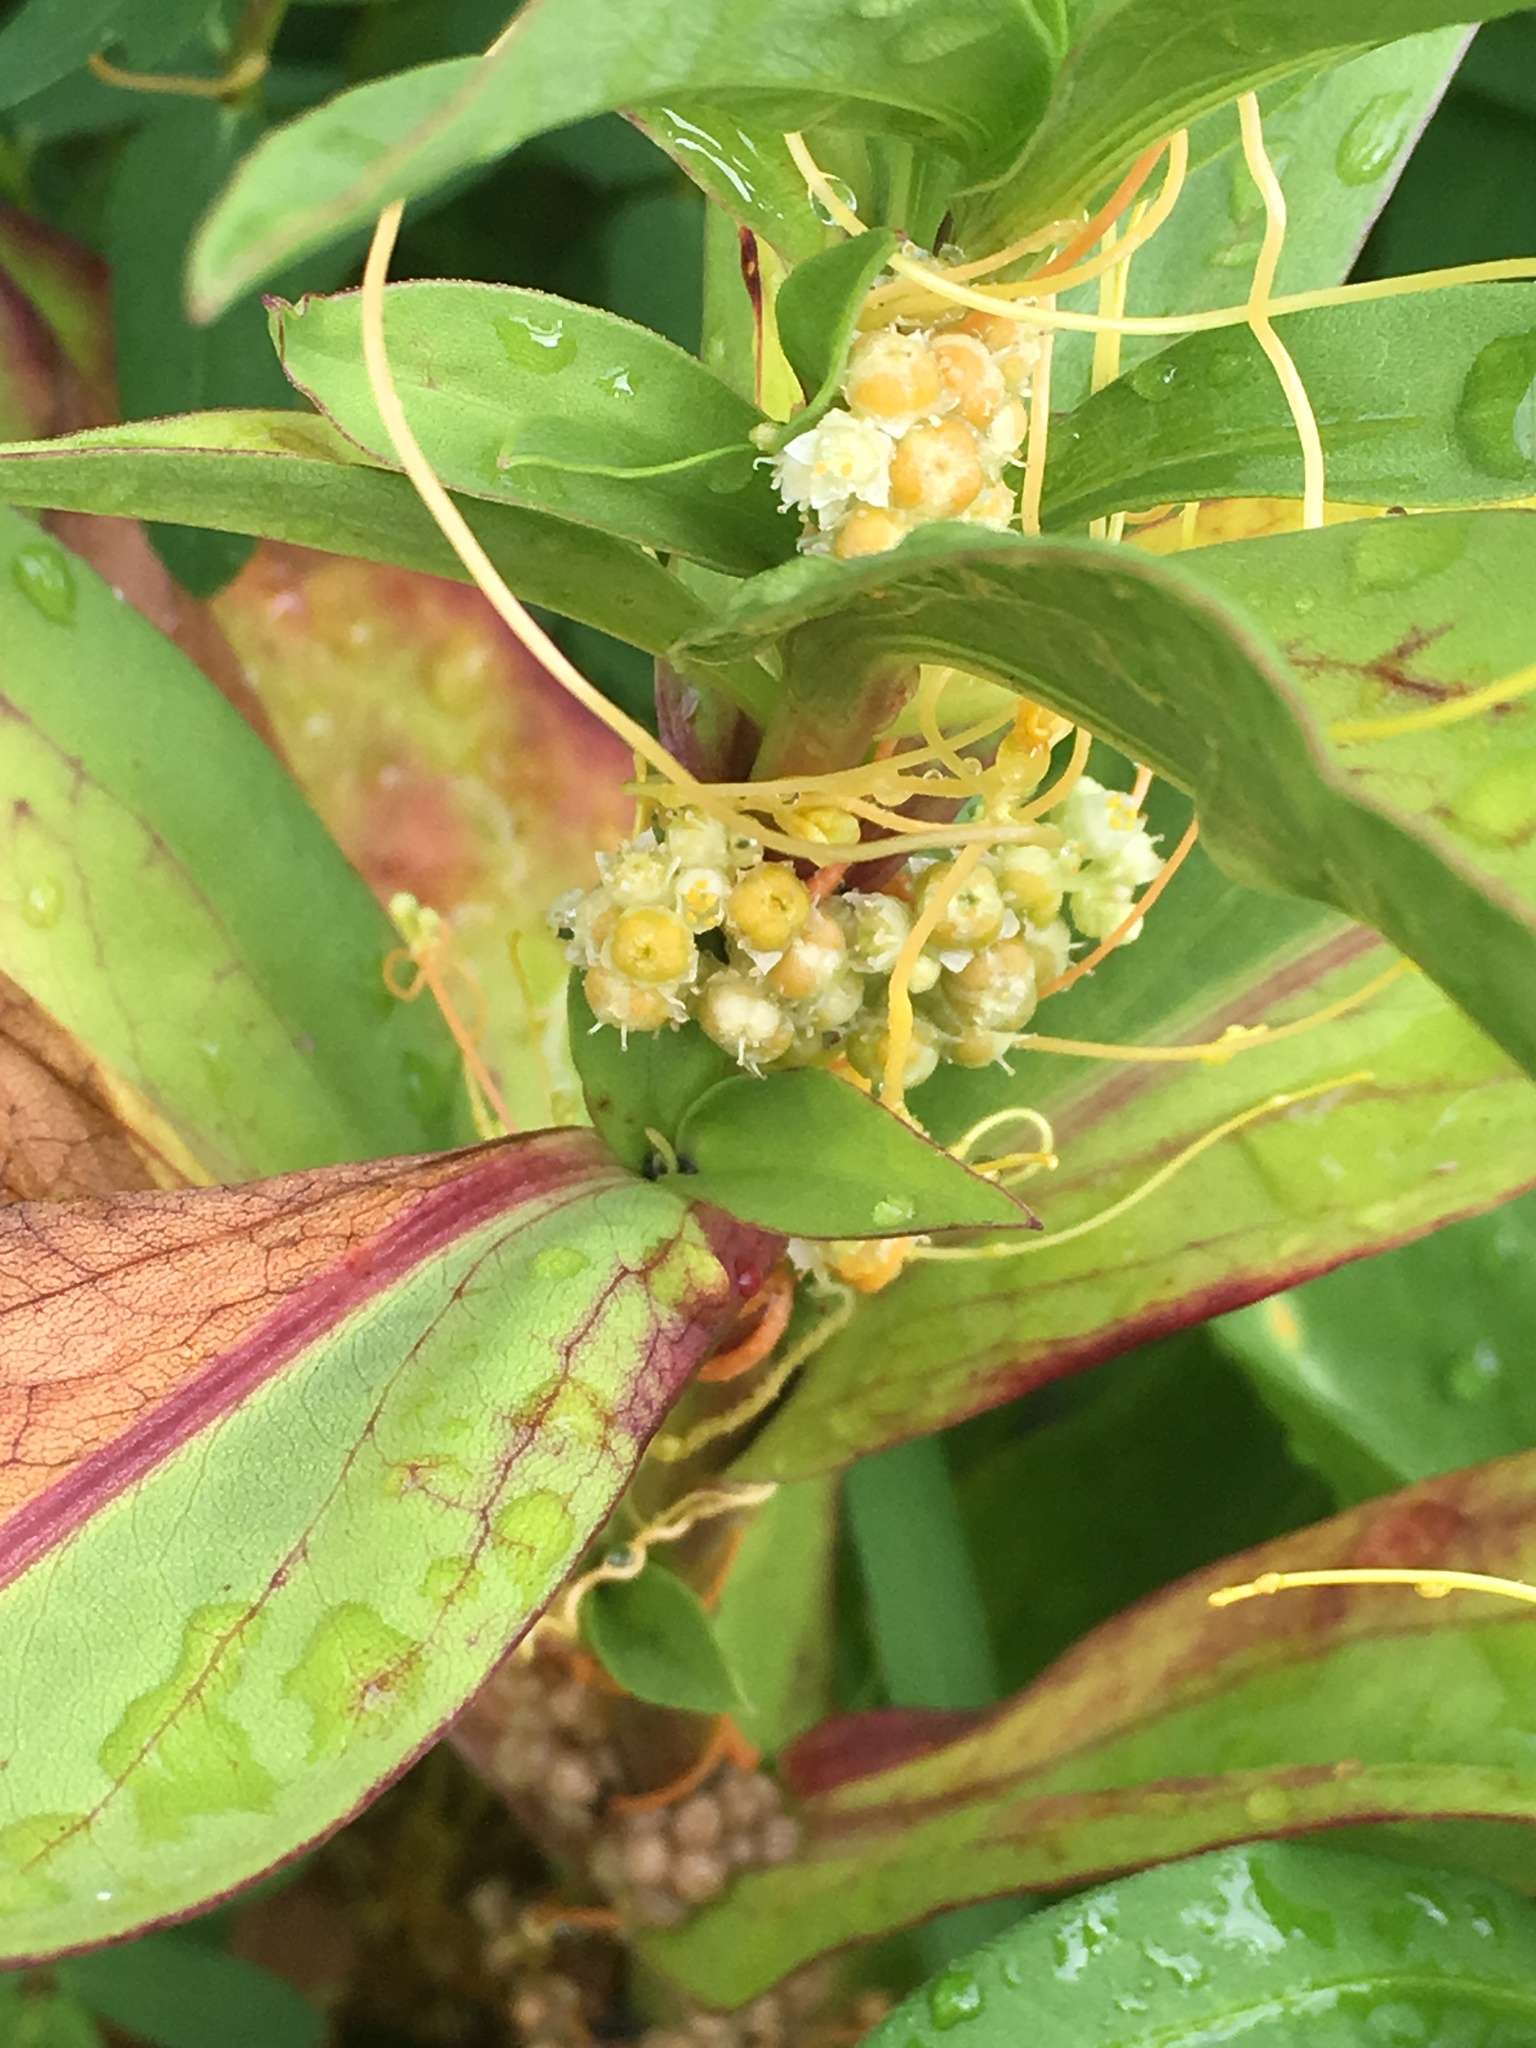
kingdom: Plantae
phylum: Tracheophyta
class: Magnoliopsida
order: Solanales
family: Convolvulaceae
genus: Cuscuta
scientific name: Cuscuta pentagona
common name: Fiveangled dodder
